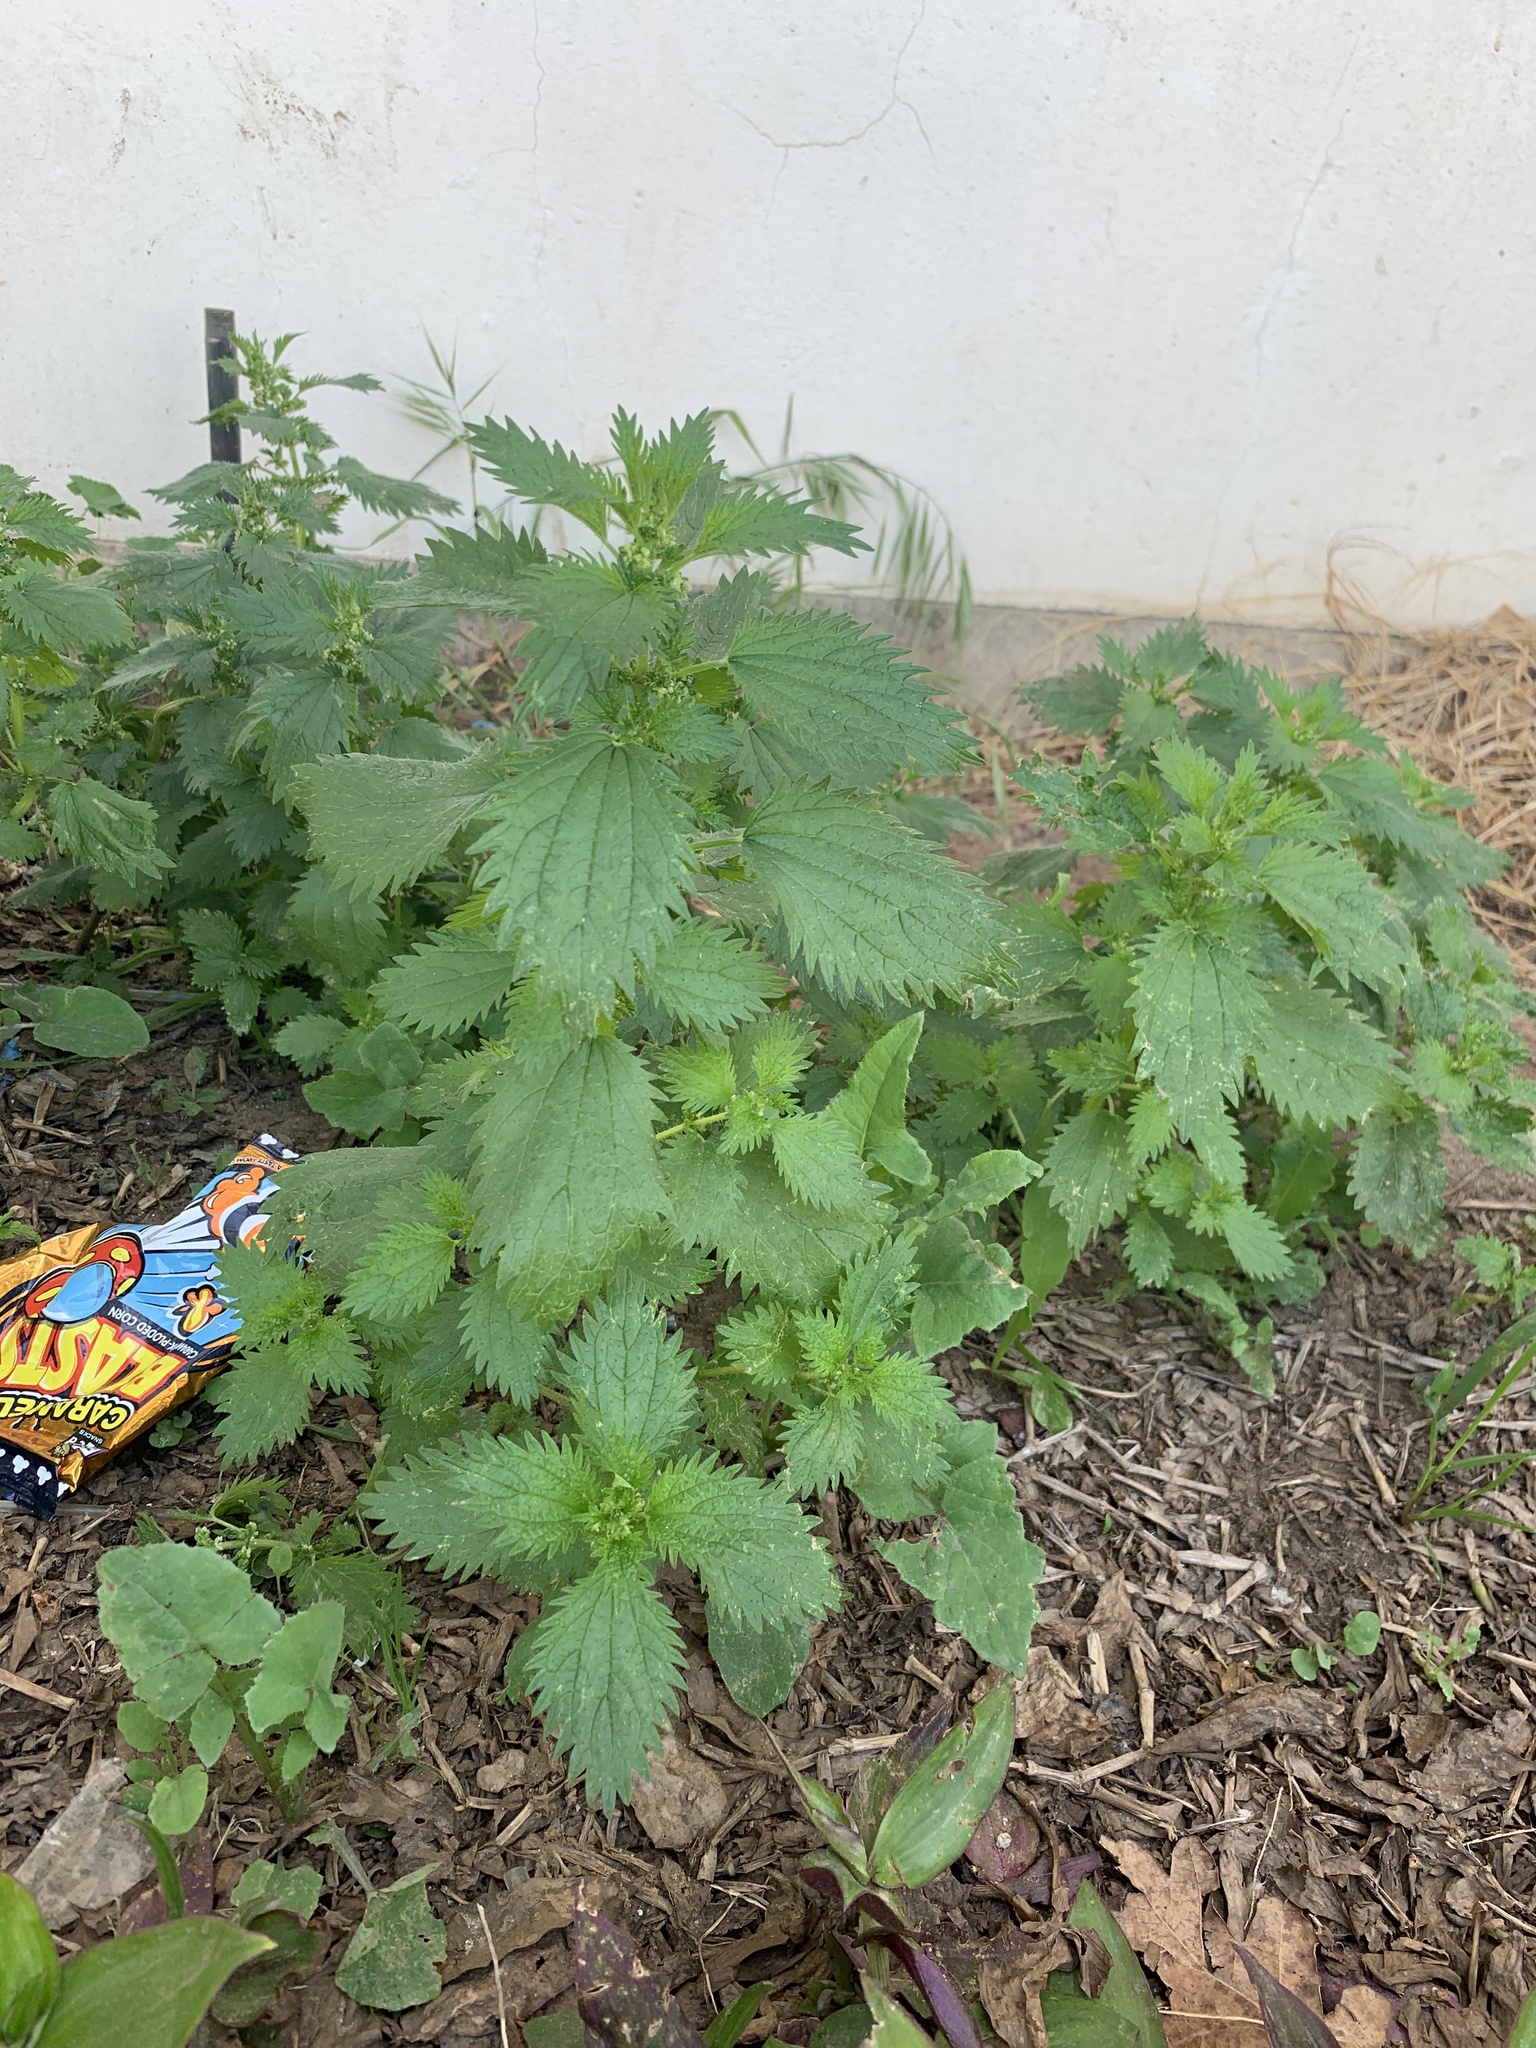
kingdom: Plantae
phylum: Tracheophyta
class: Magnoliopsida
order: Rosales
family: Urticaceae
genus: Urtica
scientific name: Urtica urens
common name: Dwarf nettle
